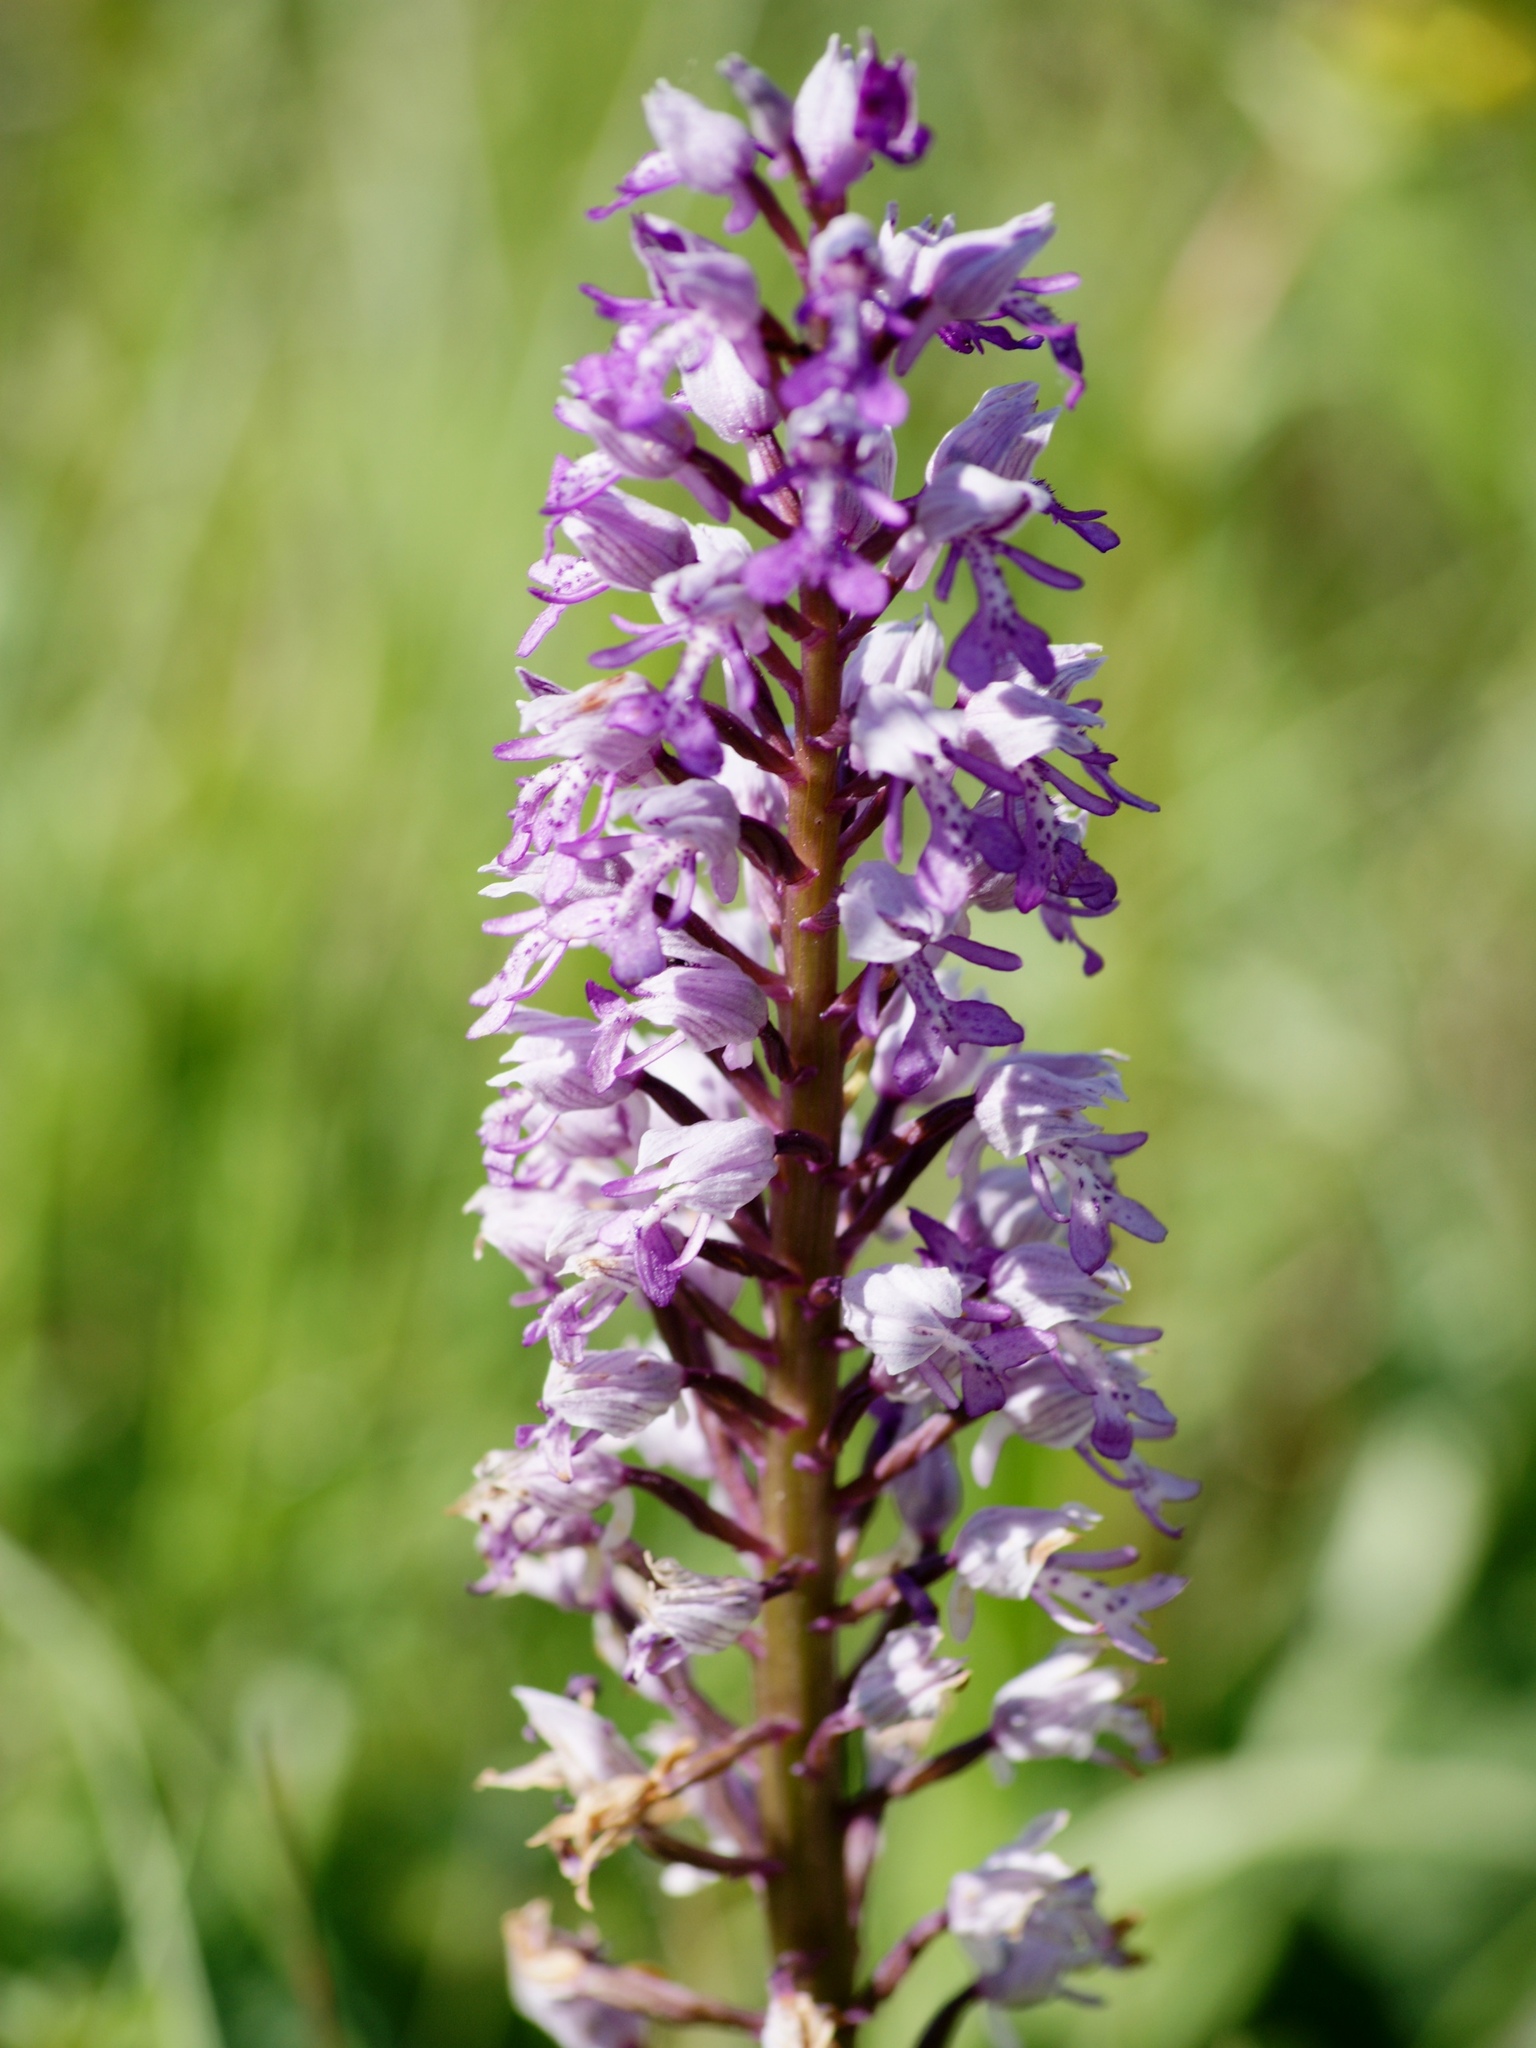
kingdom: Plantae
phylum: Tracheophyta
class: Liliopsida
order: Asparagales
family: Orchidaceae
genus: Orchis
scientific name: Orchis militaris
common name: Military orchid
